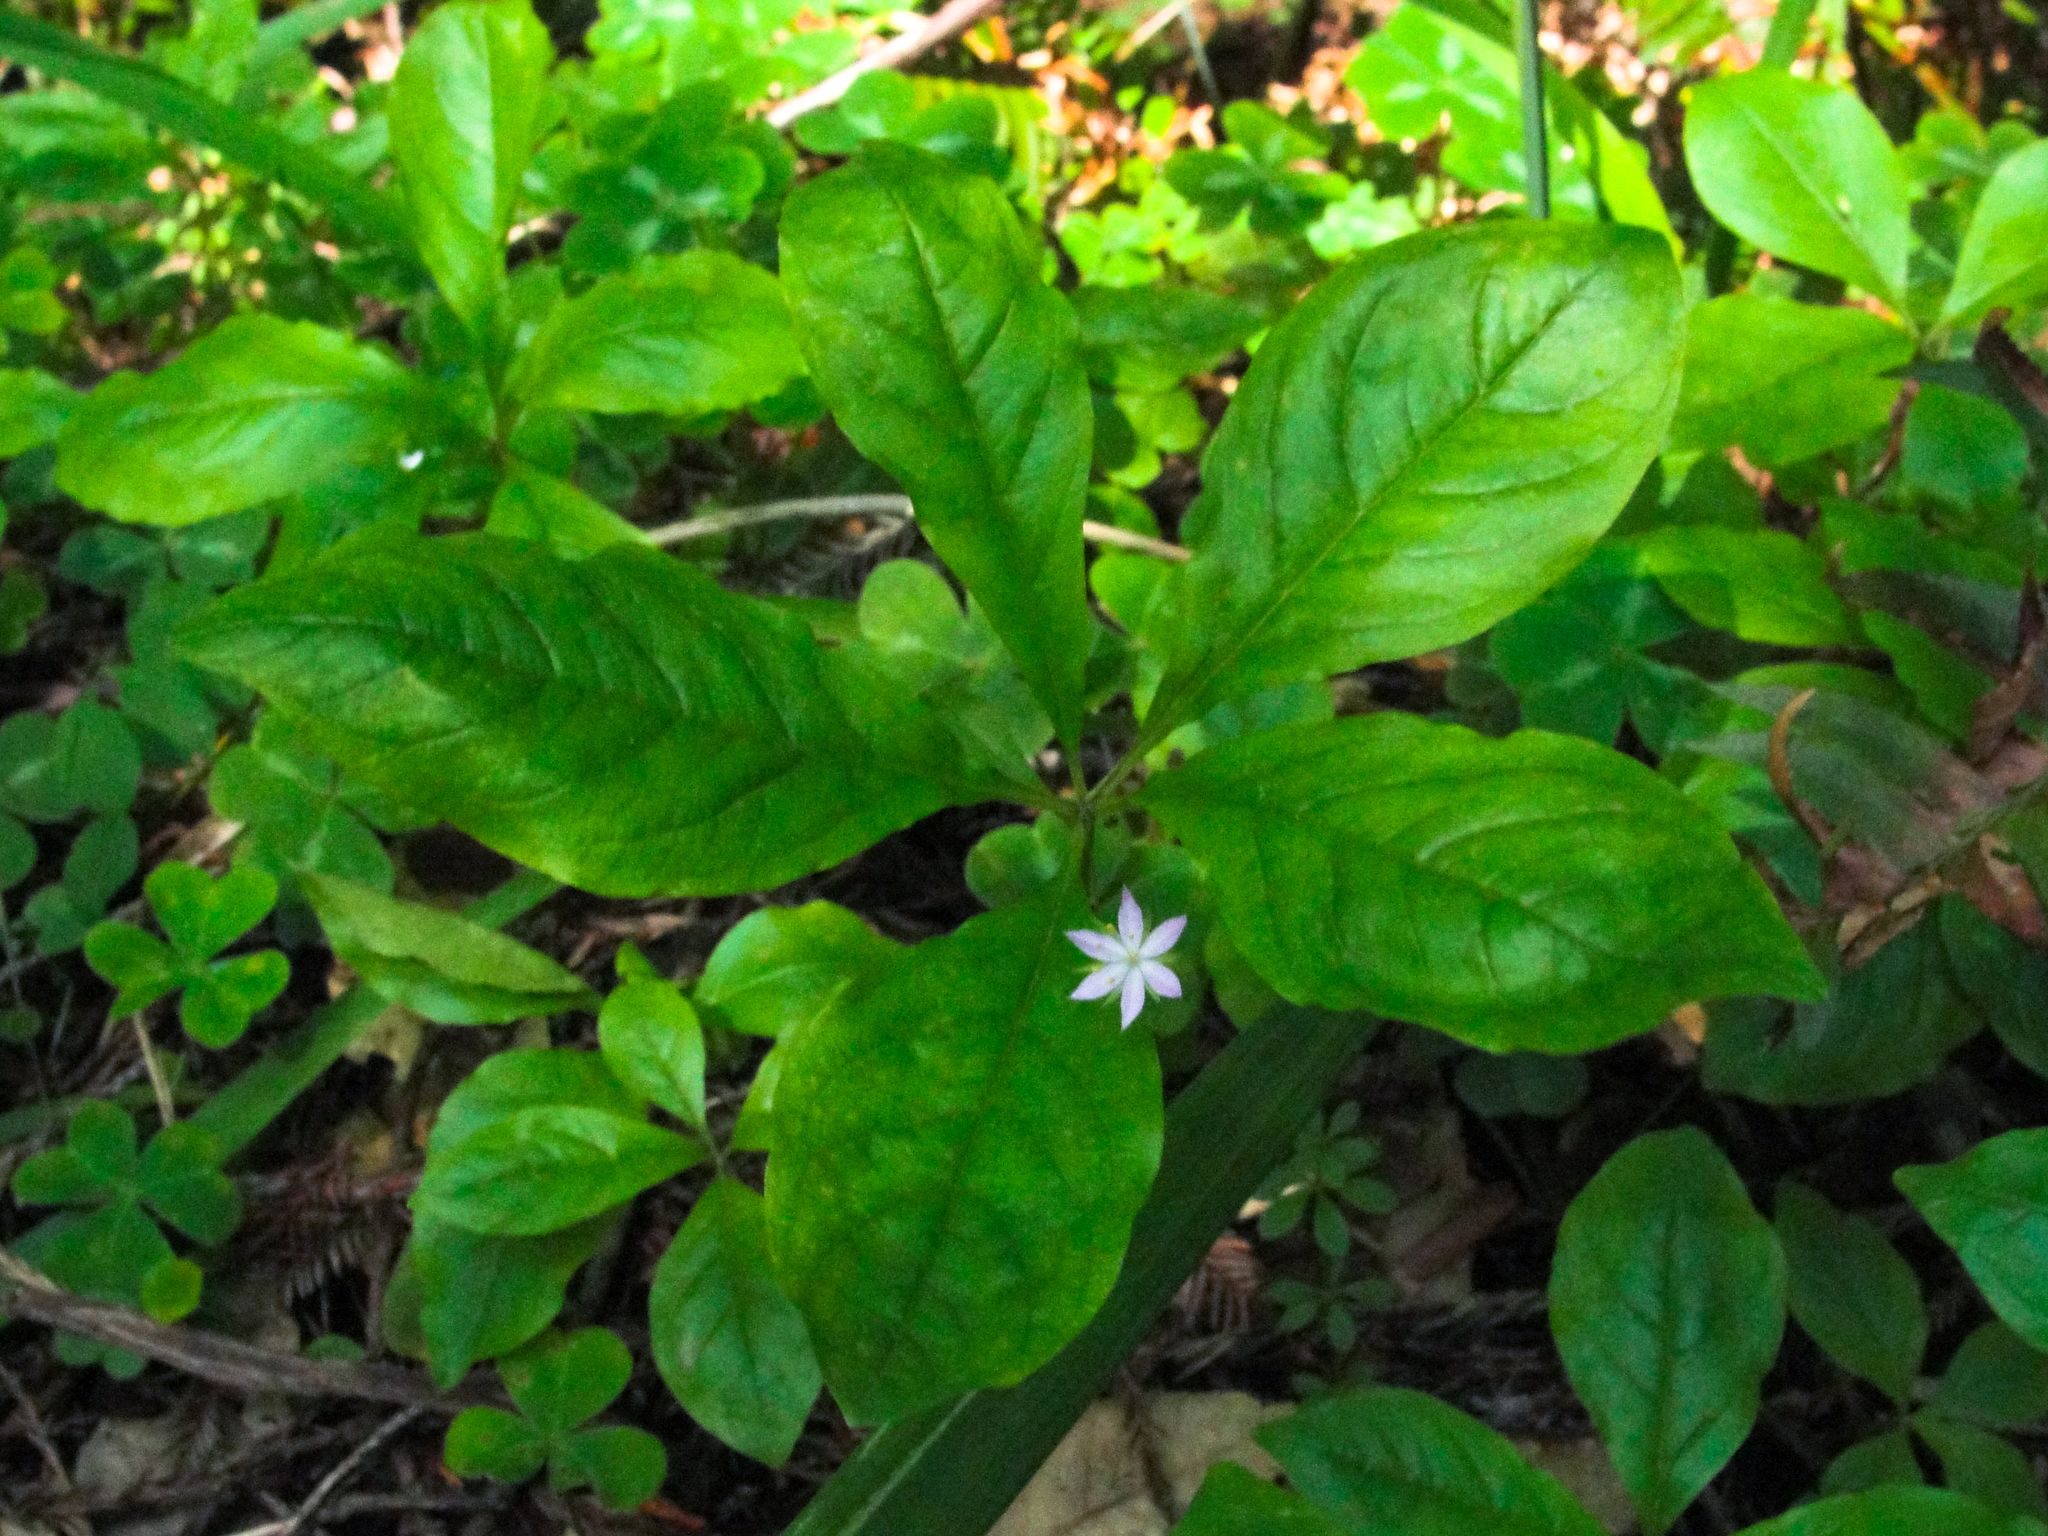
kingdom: Plantae
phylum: Tracheophyta
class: Magnoliopsida
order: Ericales
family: Primulaceae
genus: Lysimachia
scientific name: Lysimachia latifolia
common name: Pacific starflower
